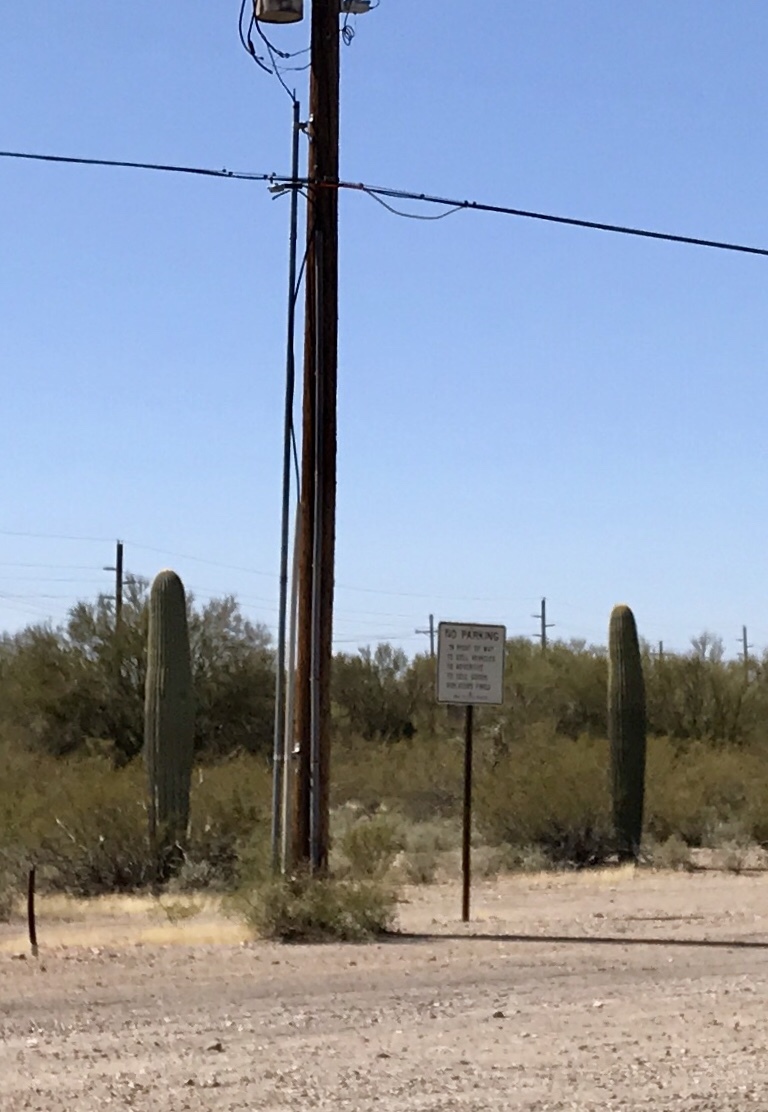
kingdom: Plantae
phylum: Tracheophyta
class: Magnoliopsida
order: Caryophyllales
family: Cactaceae
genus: Carnegiea
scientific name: Carnegiea gigantea
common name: Saguaro
